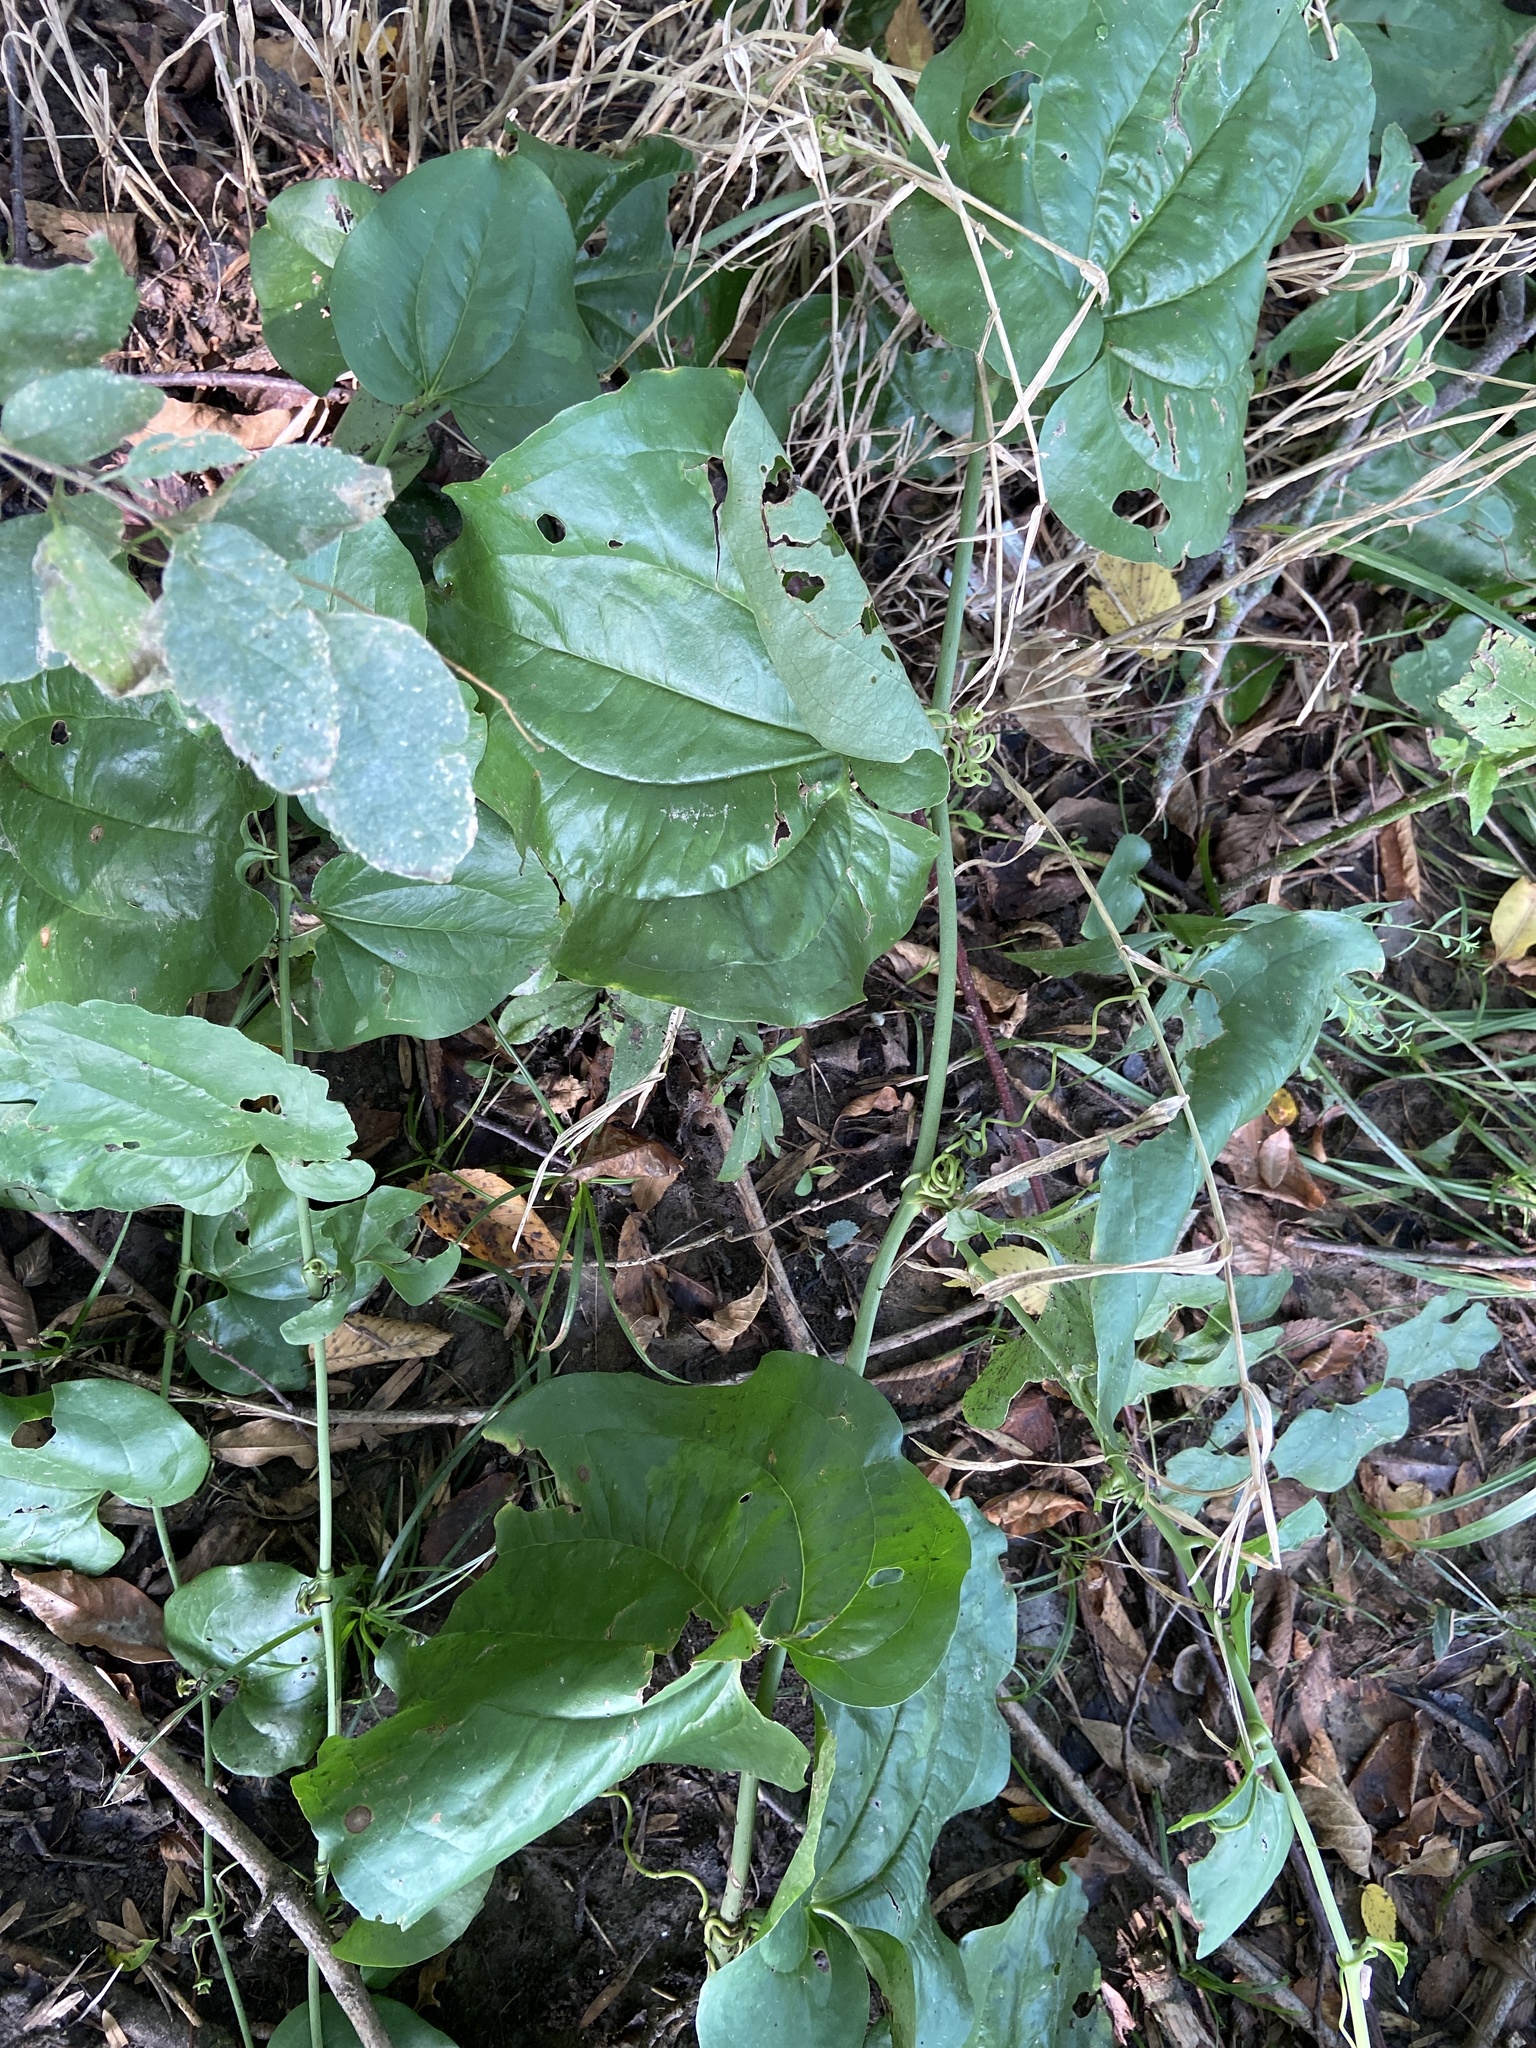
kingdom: Plantae
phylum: Tracheophyta
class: Liliopsida
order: Liliales
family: Smilacaceae
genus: Smilax
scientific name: Smilax tamnoides
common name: Hellfetter
